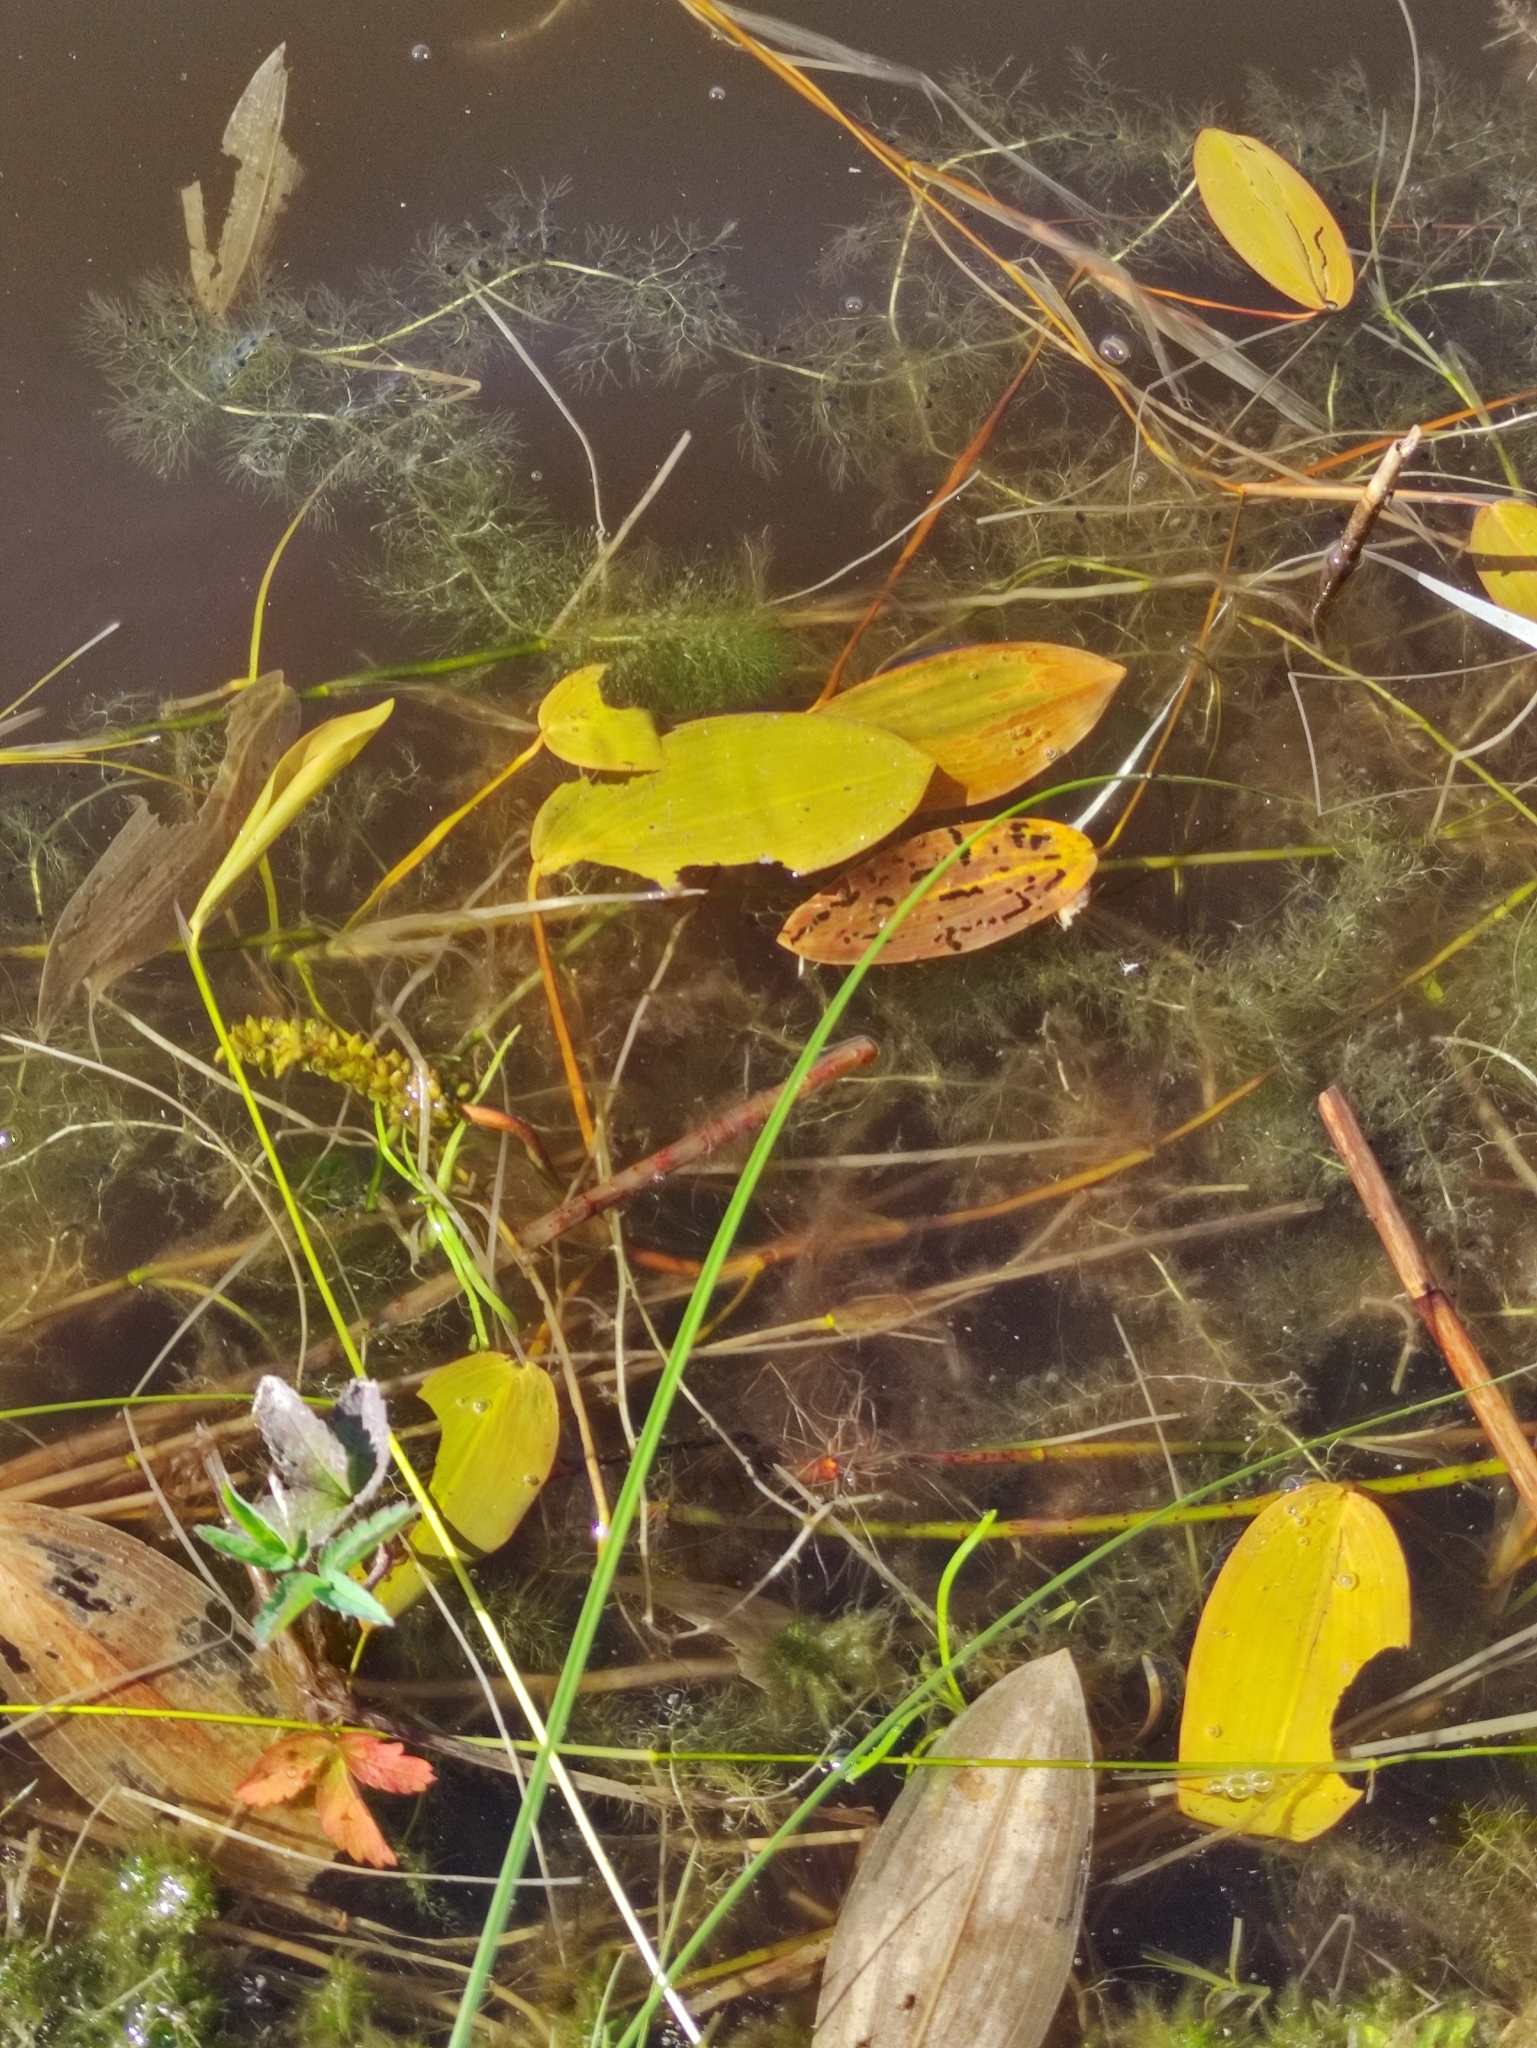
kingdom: Plantae
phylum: Tracheophyta
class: Liliopsida
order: Alismatales
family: Potamogetonaceae
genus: Potamogeton
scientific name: Potamogeton natans
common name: Broad-leaved pondweed
